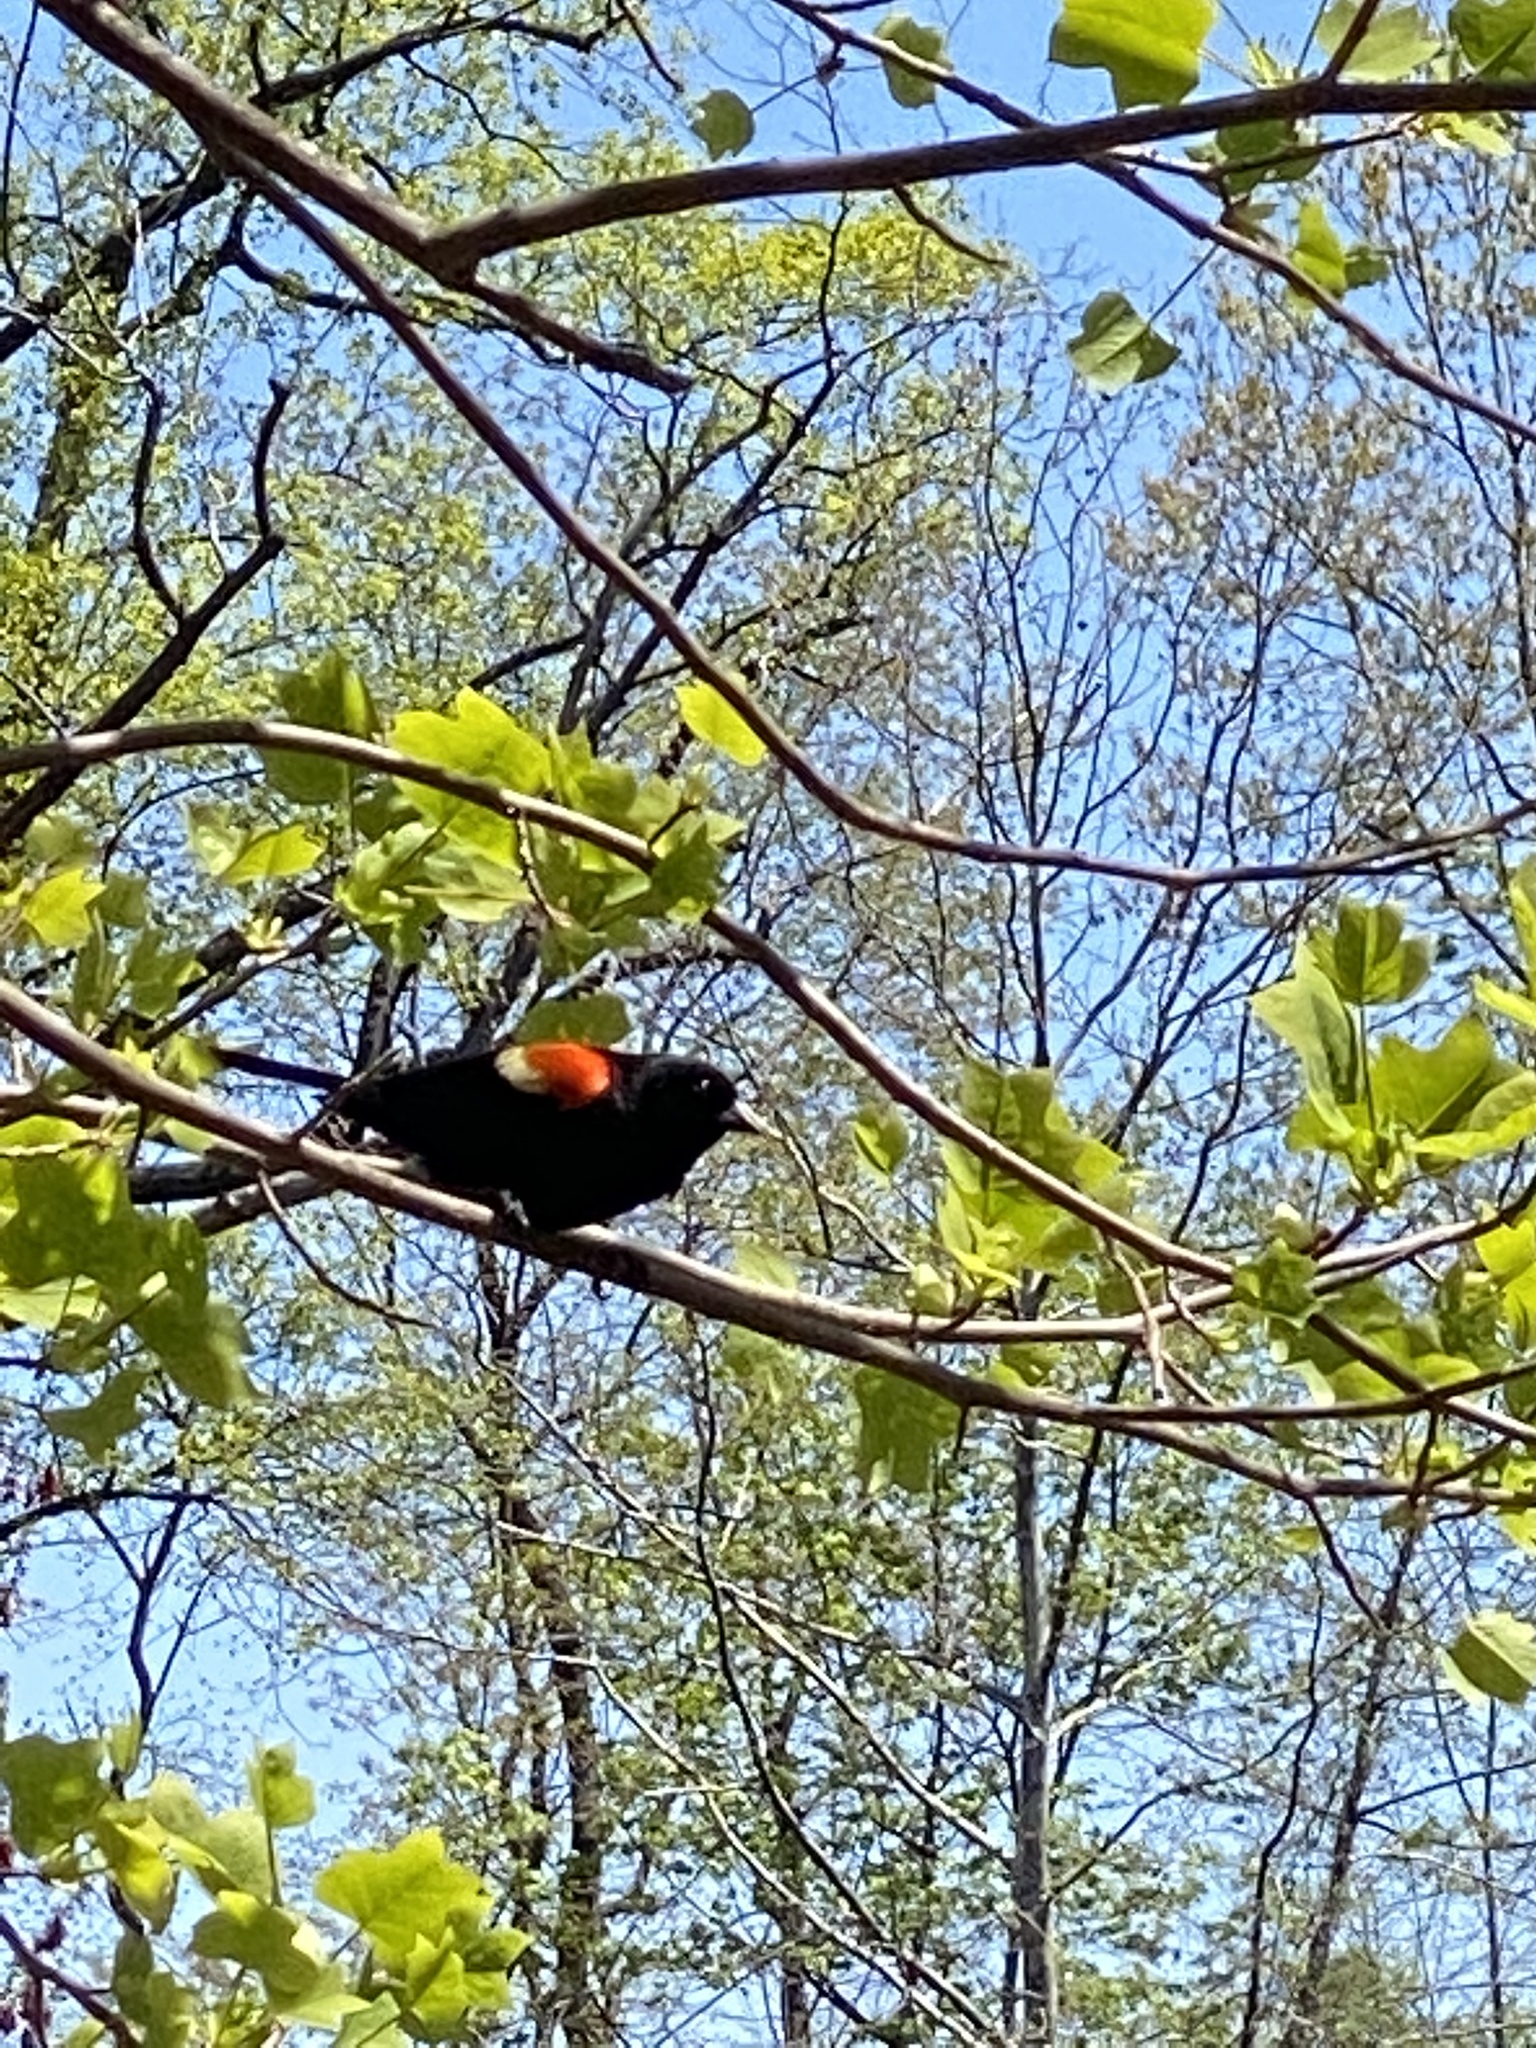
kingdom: Animalia
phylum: Chordata
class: Aves
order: Passeriformes
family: Icteridae
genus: Agelaius
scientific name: Agelaius phoeniceus
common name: Red-winged blackbird
